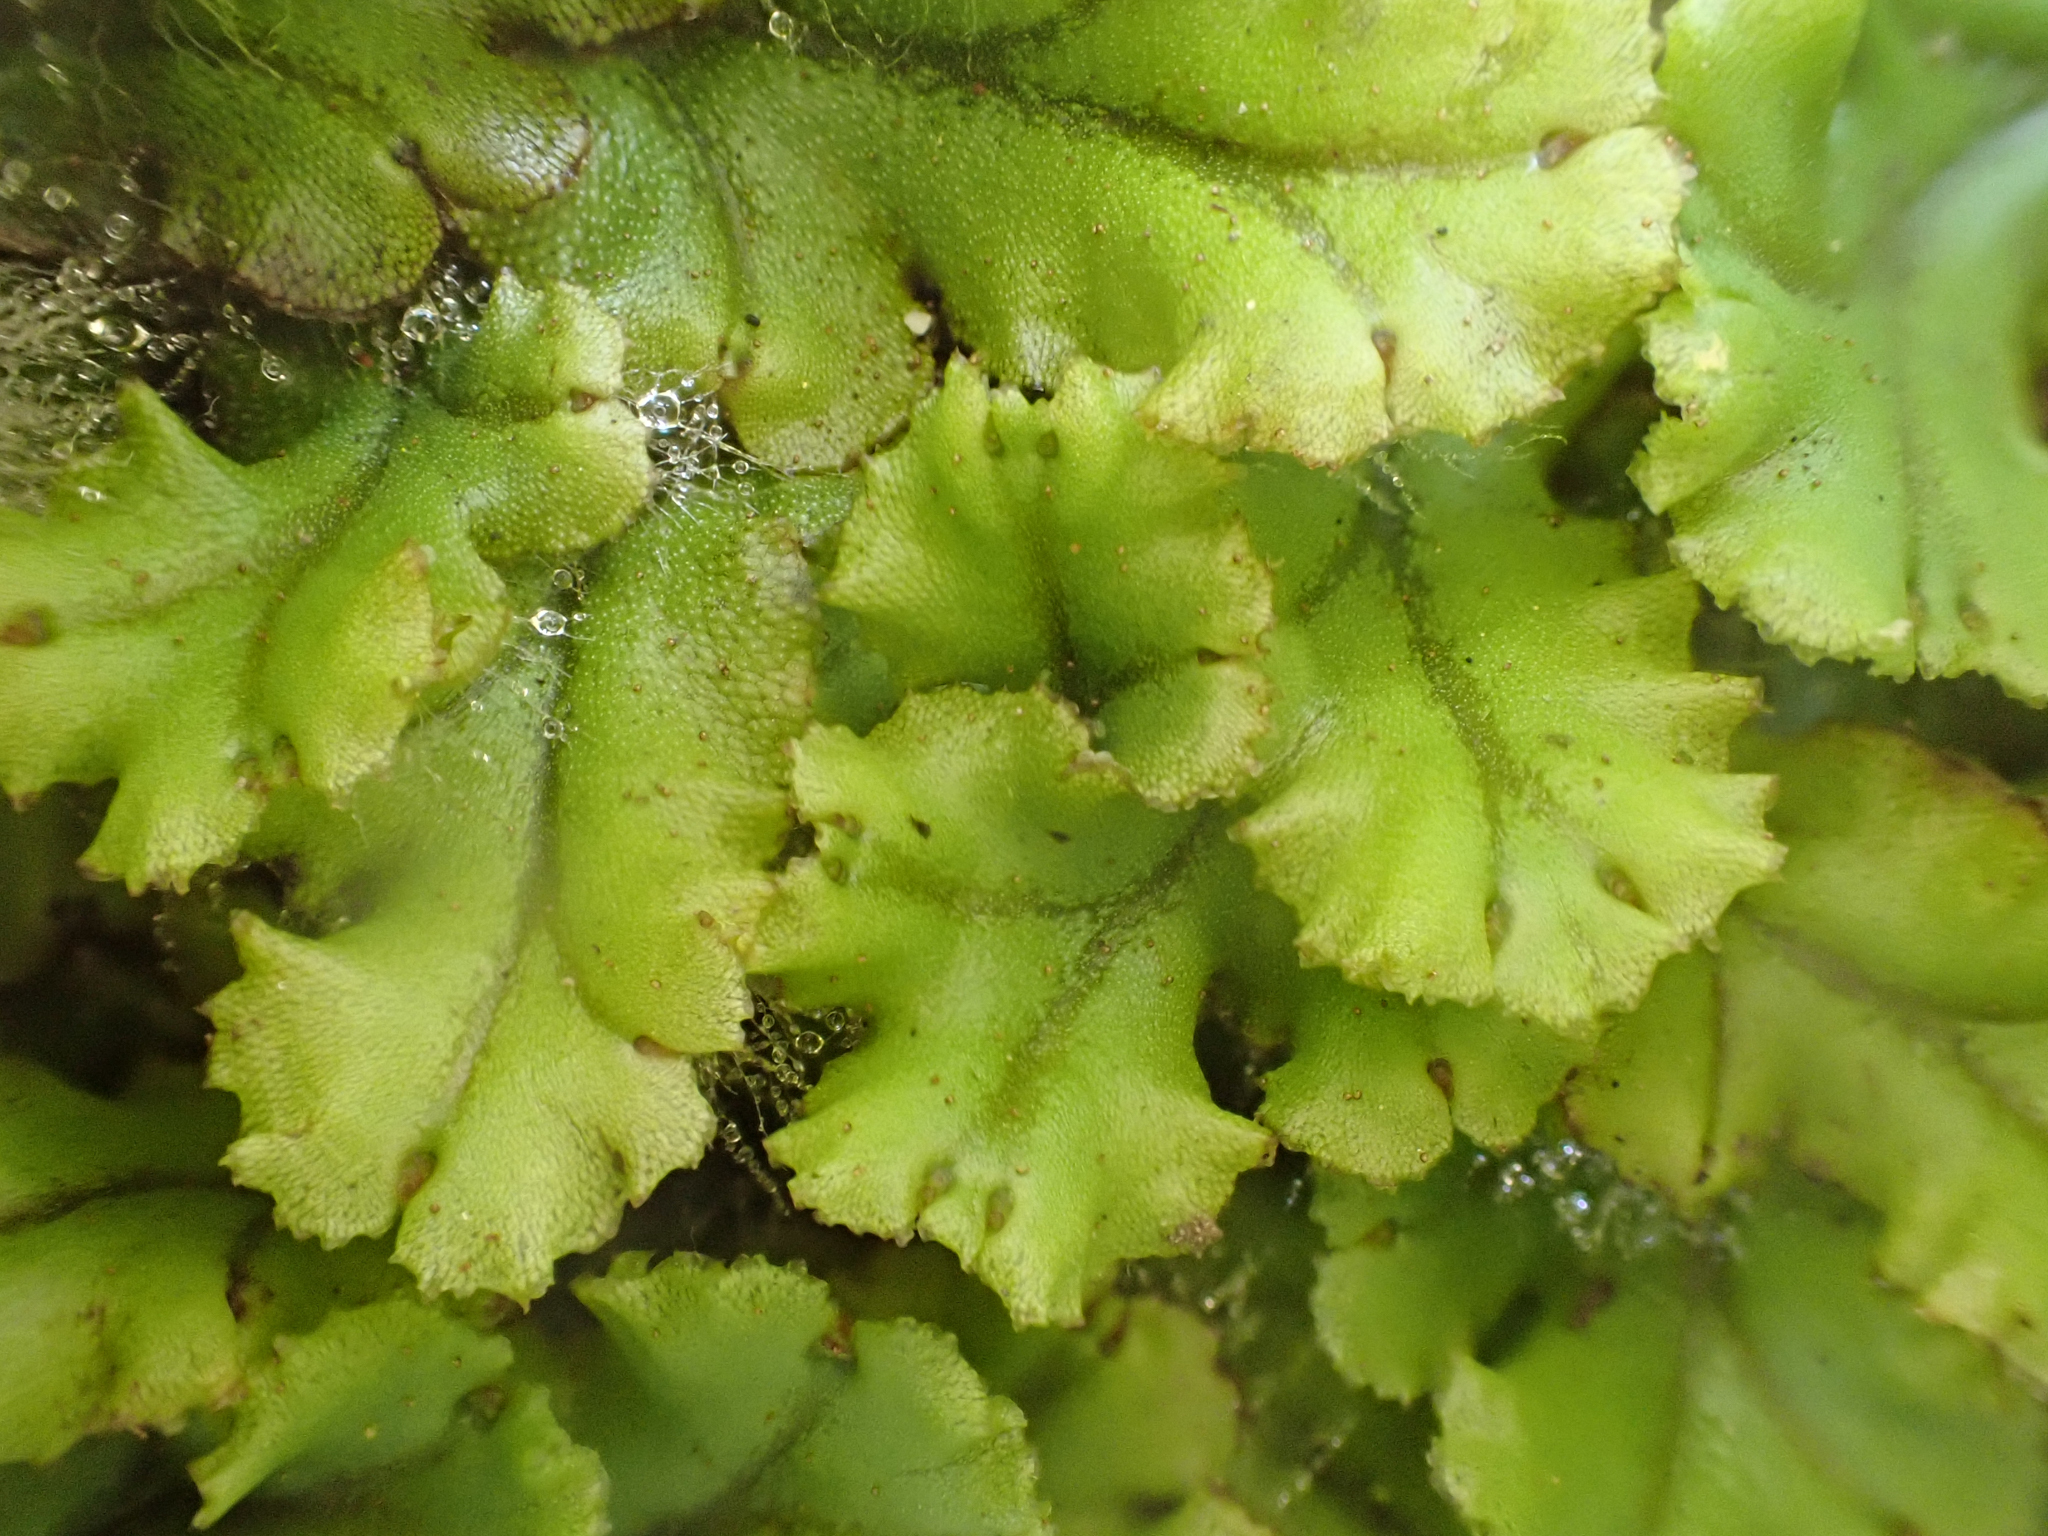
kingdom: Plantae
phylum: Marchantiophyta
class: Marchantiopsida
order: Marchantiales
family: Marchantiaceae
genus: Marchantia
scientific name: Marchantia polymorpha
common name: Common liverwort
